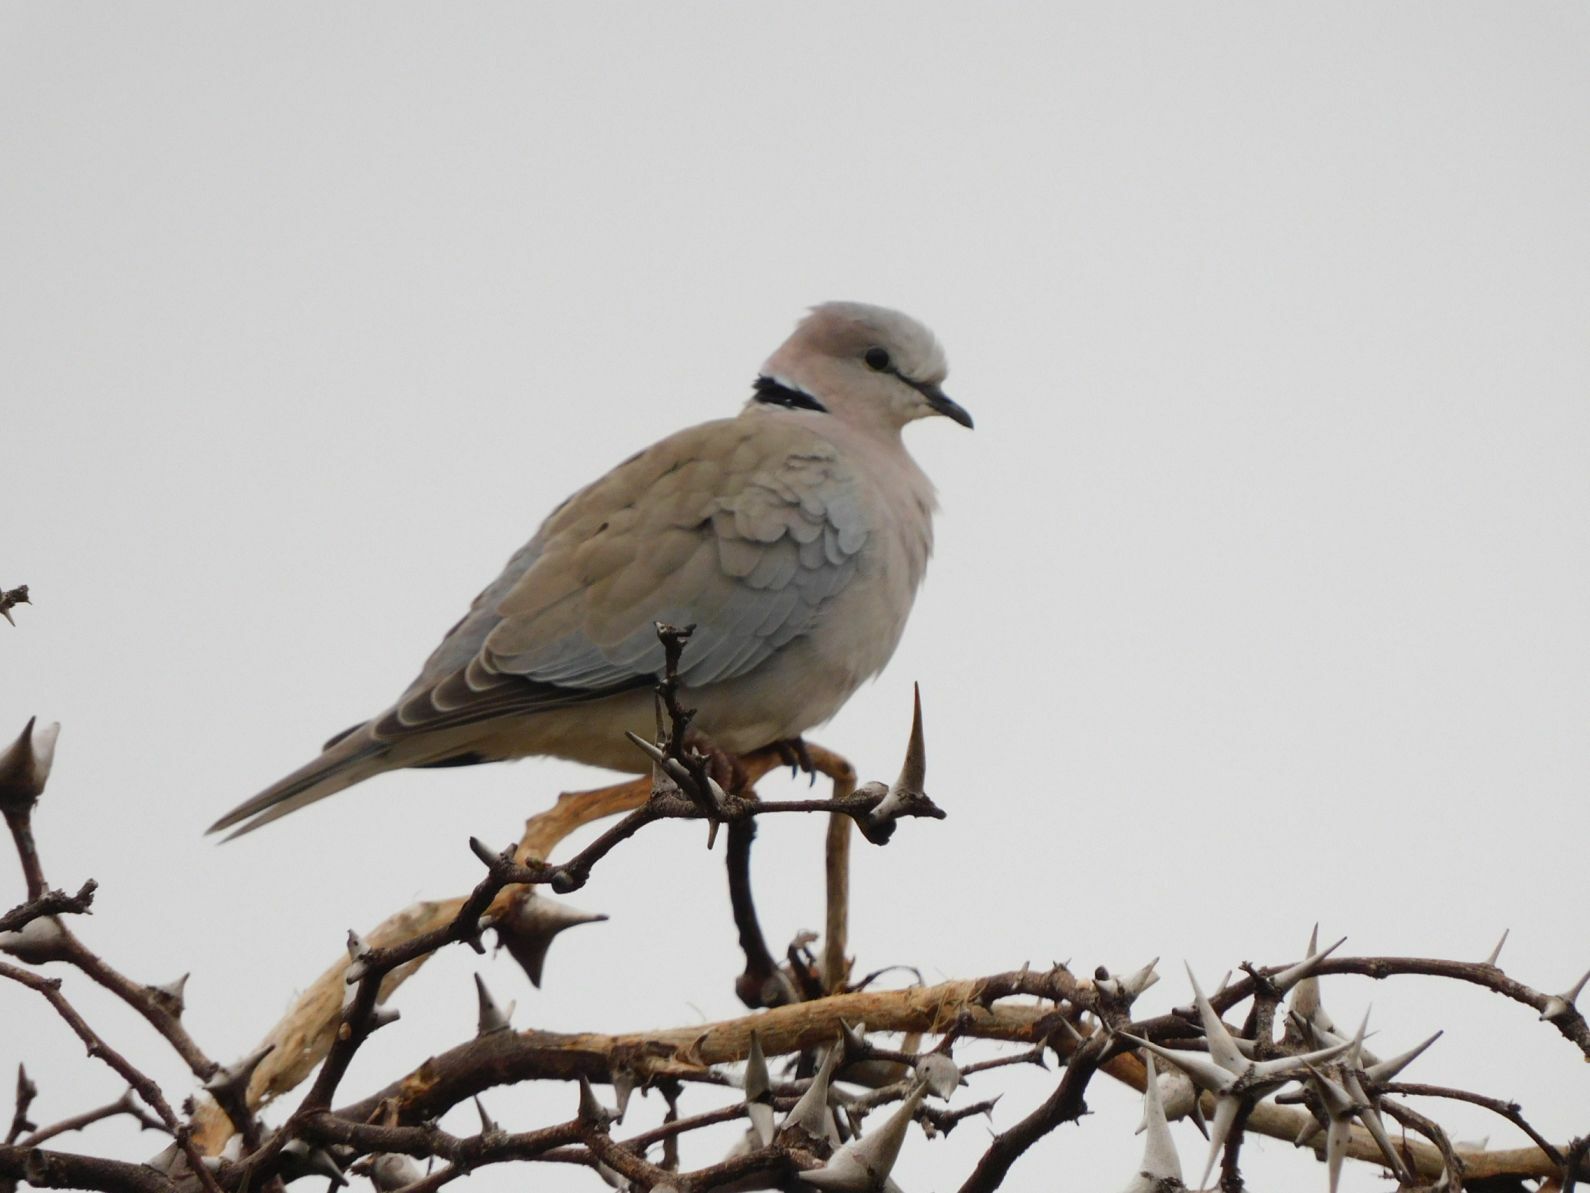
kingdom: Animalia
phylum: Chordata
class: Aves
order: Columbiformes
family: Columbidae
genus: Streptopelia
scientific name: Streptopelia capicola
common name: Ring-necked dove
